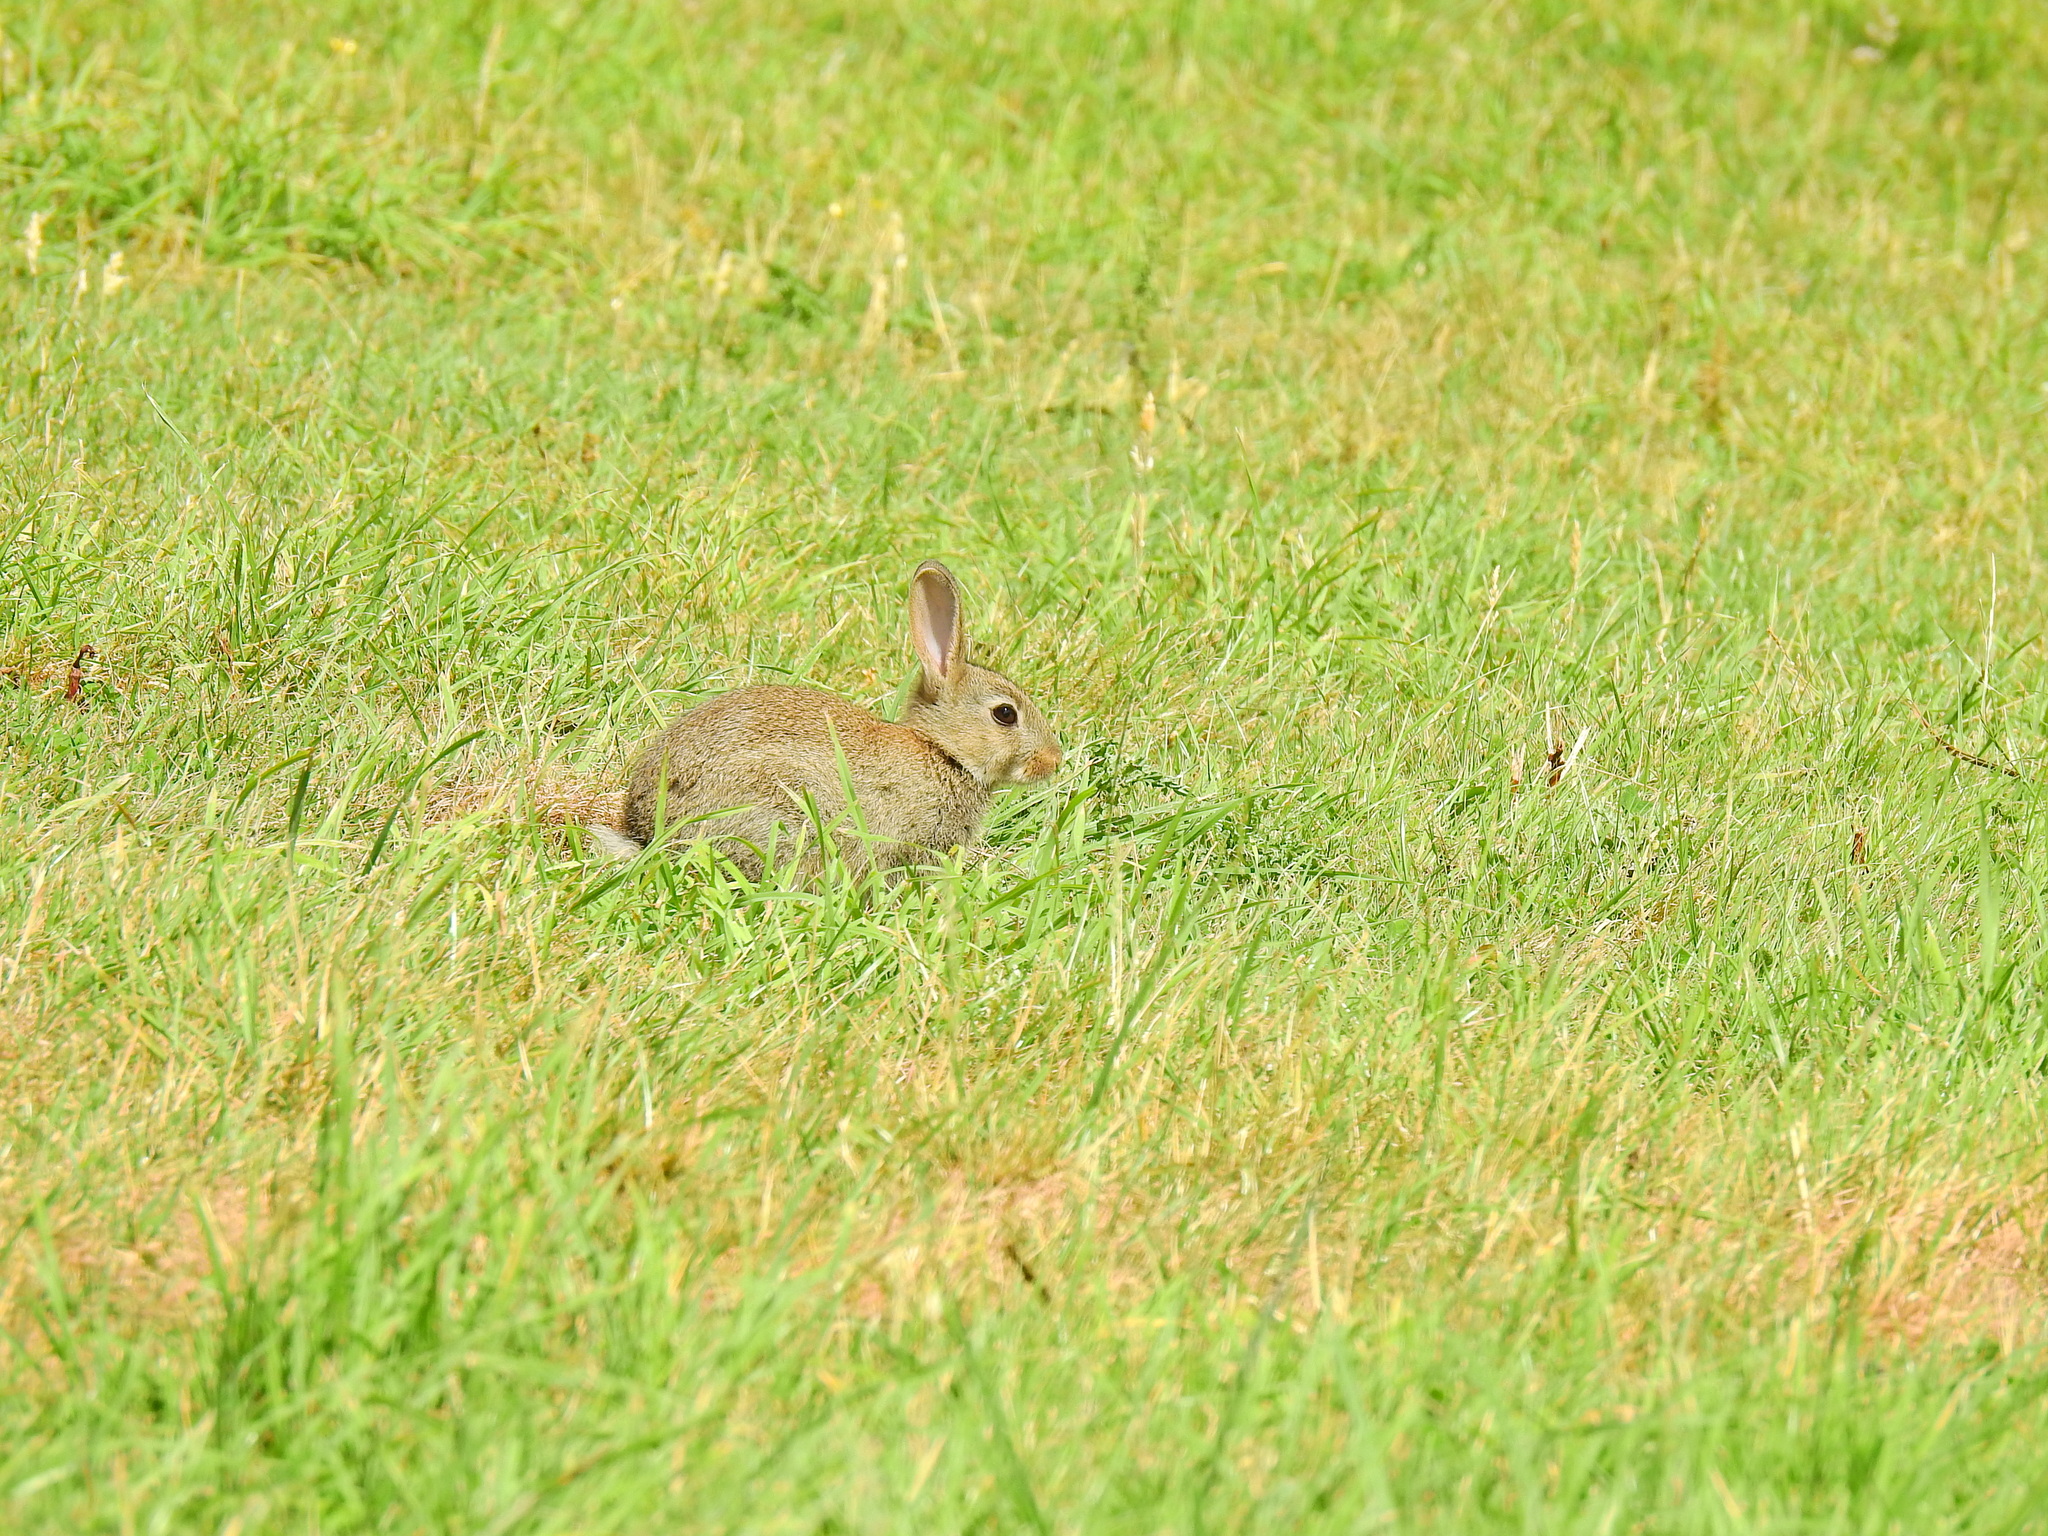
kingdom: Animalia
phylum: Chordata
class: Mammalia
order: Lagomorpha
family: Leporidae
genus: Oryctolagus
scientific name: Oryctolagus cuniculus
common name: European rabbit
